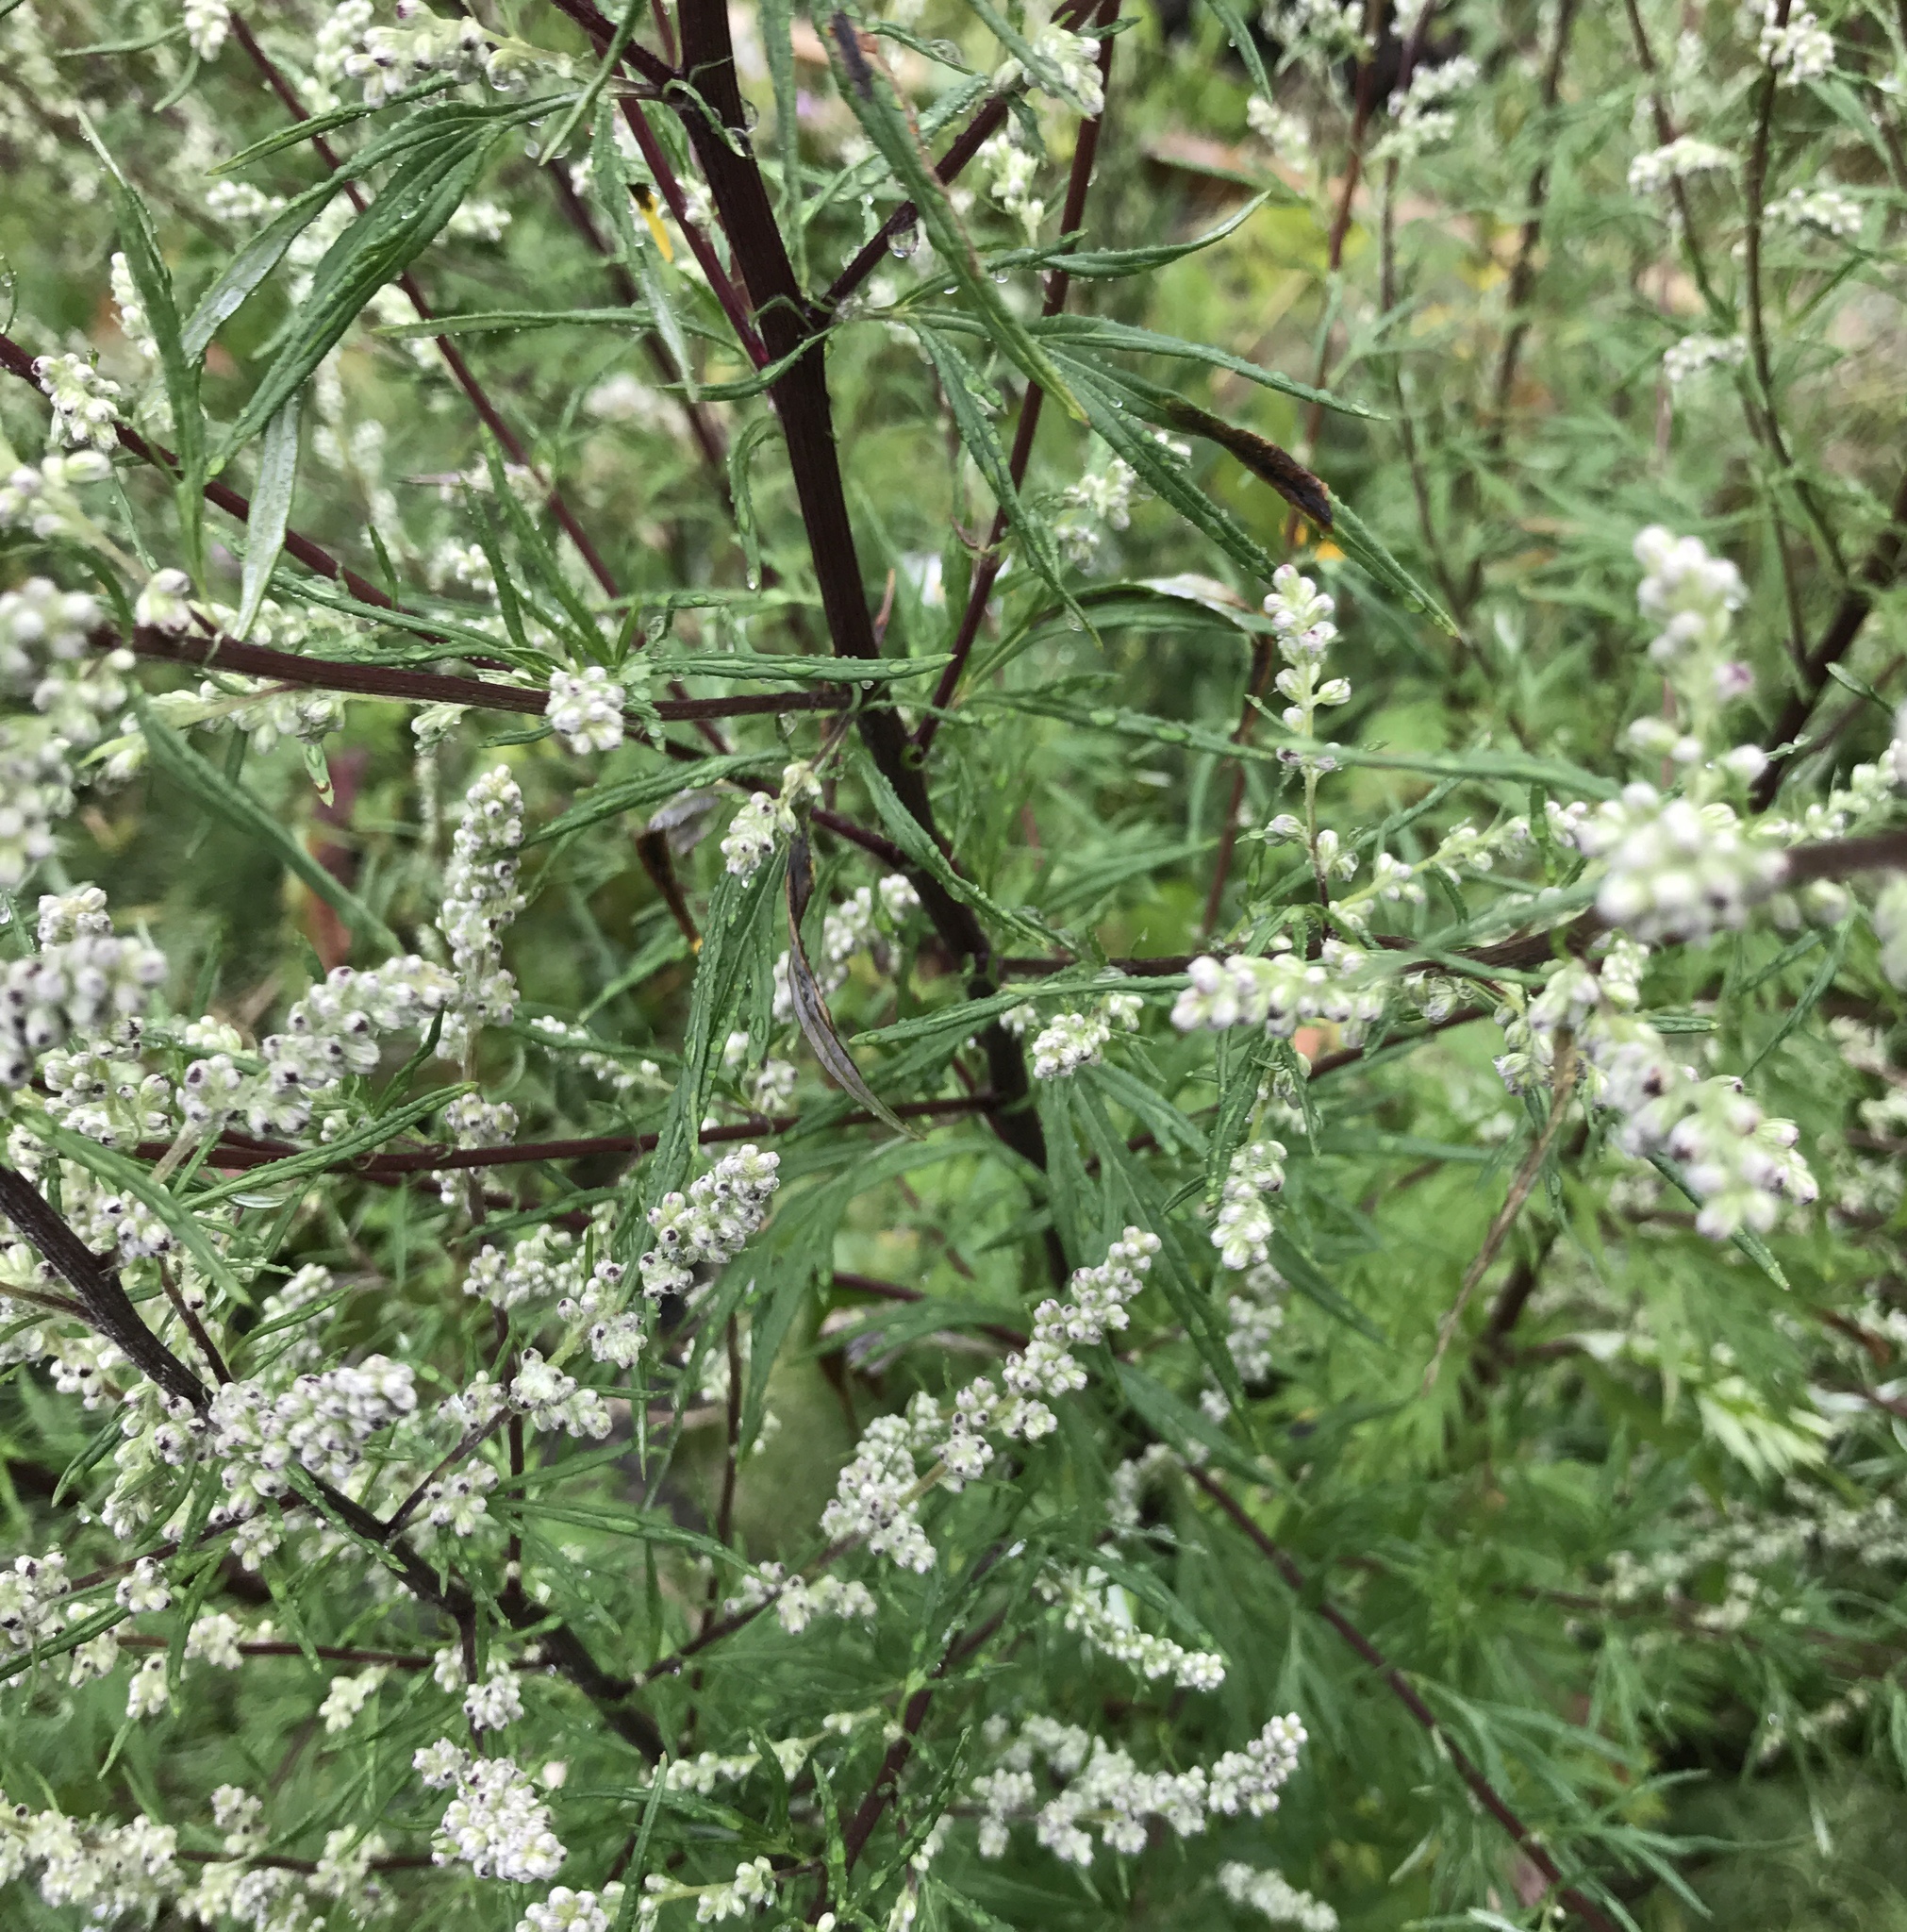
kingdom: Plantae
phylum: Tracheophyta
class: Magnoliopsida
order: Asterales
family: Asteraceae
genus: Artemisia
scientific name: Artemisia vulgaris
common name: Mugwort
